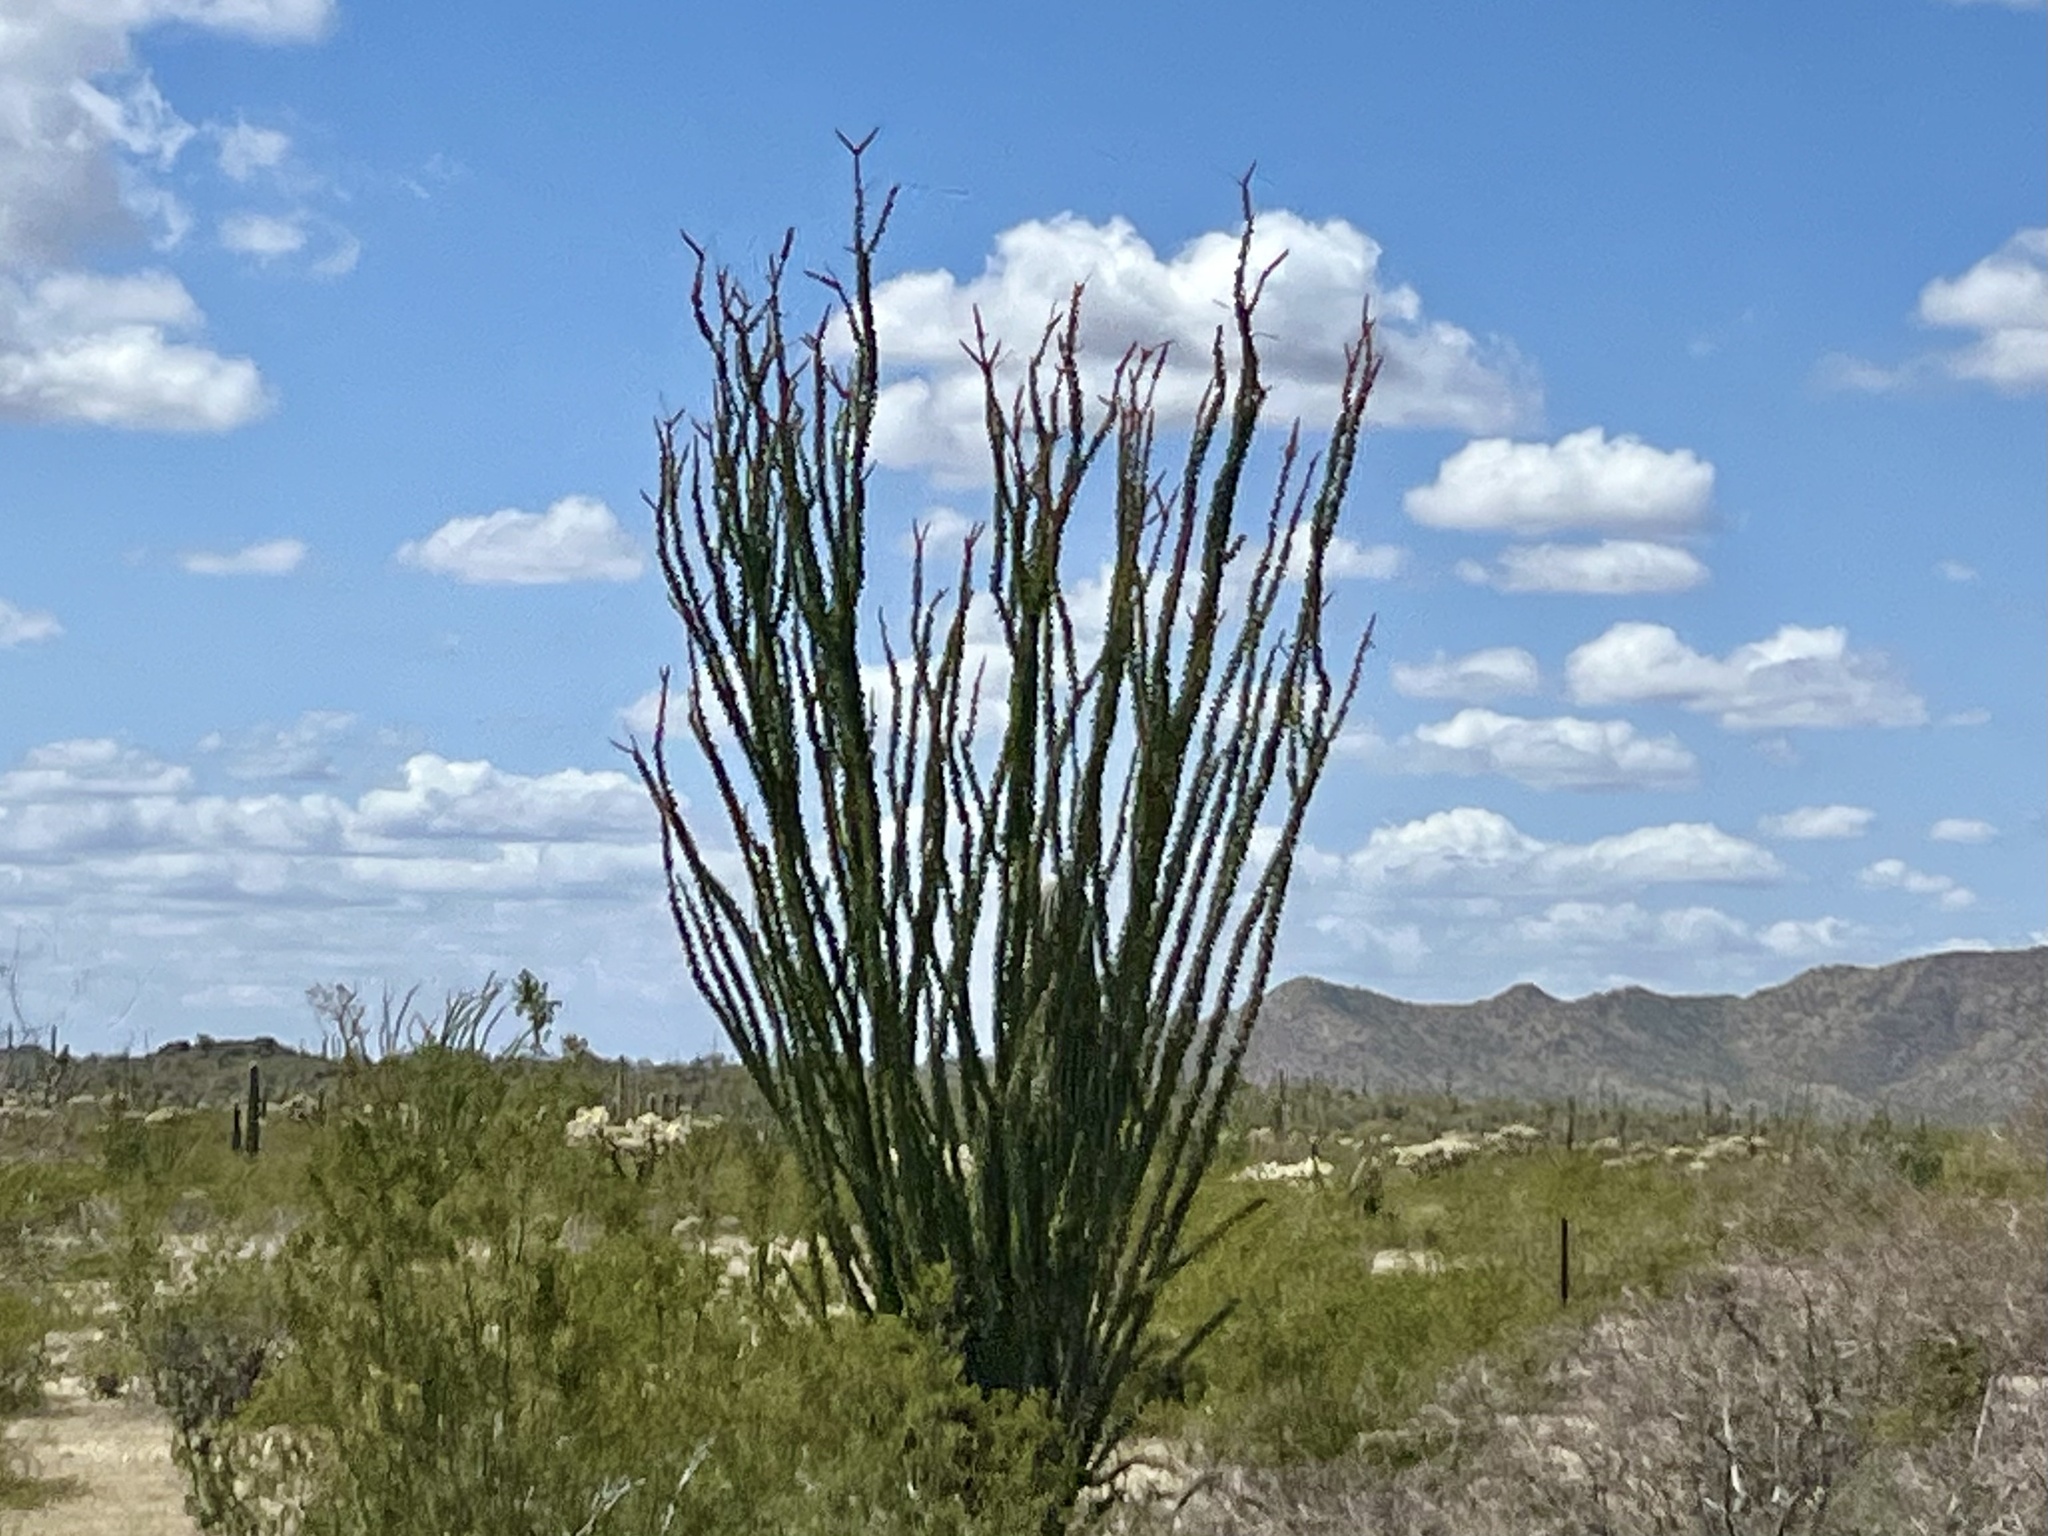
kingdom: Plantae
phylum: Tracheophyta
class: Magnoliopsida
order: Ericales
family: Fouquieriaceae
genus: Fouquieria
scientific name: Fouquieria splendens
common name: Vine-cactus
